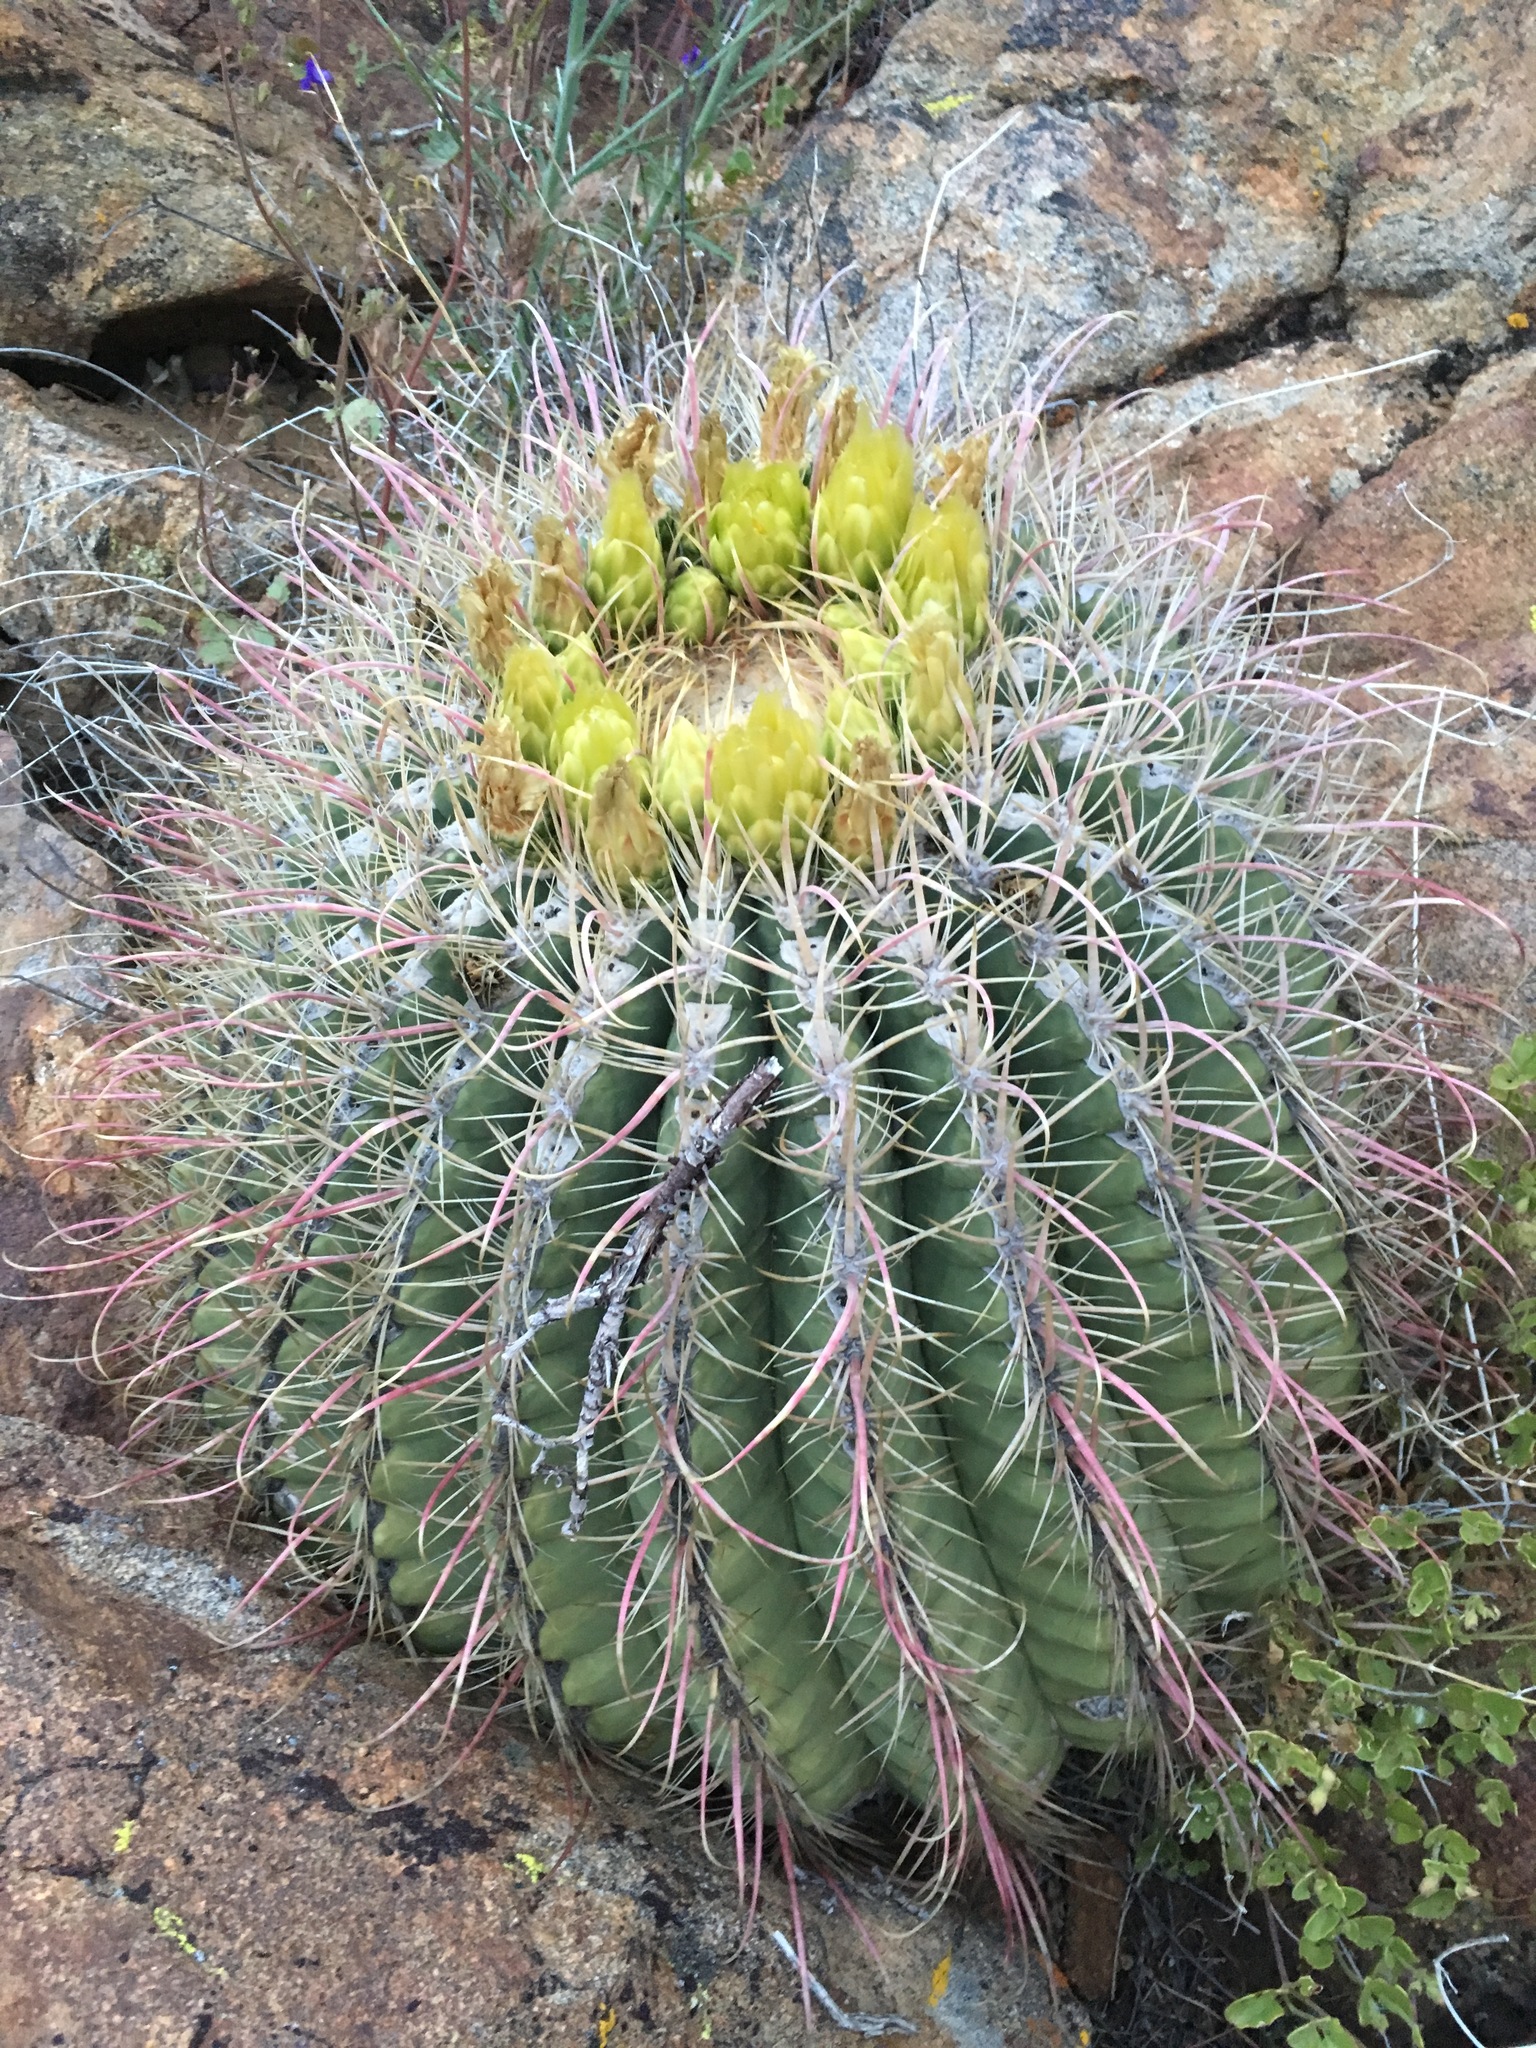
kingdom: Plantae
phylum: Tracheophyta
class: Magnoliopsida
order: Caryophyllales
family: Cactaceae
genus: Ferocactus
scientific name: Ferocactus cylindraceus
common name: California barrel cactus
